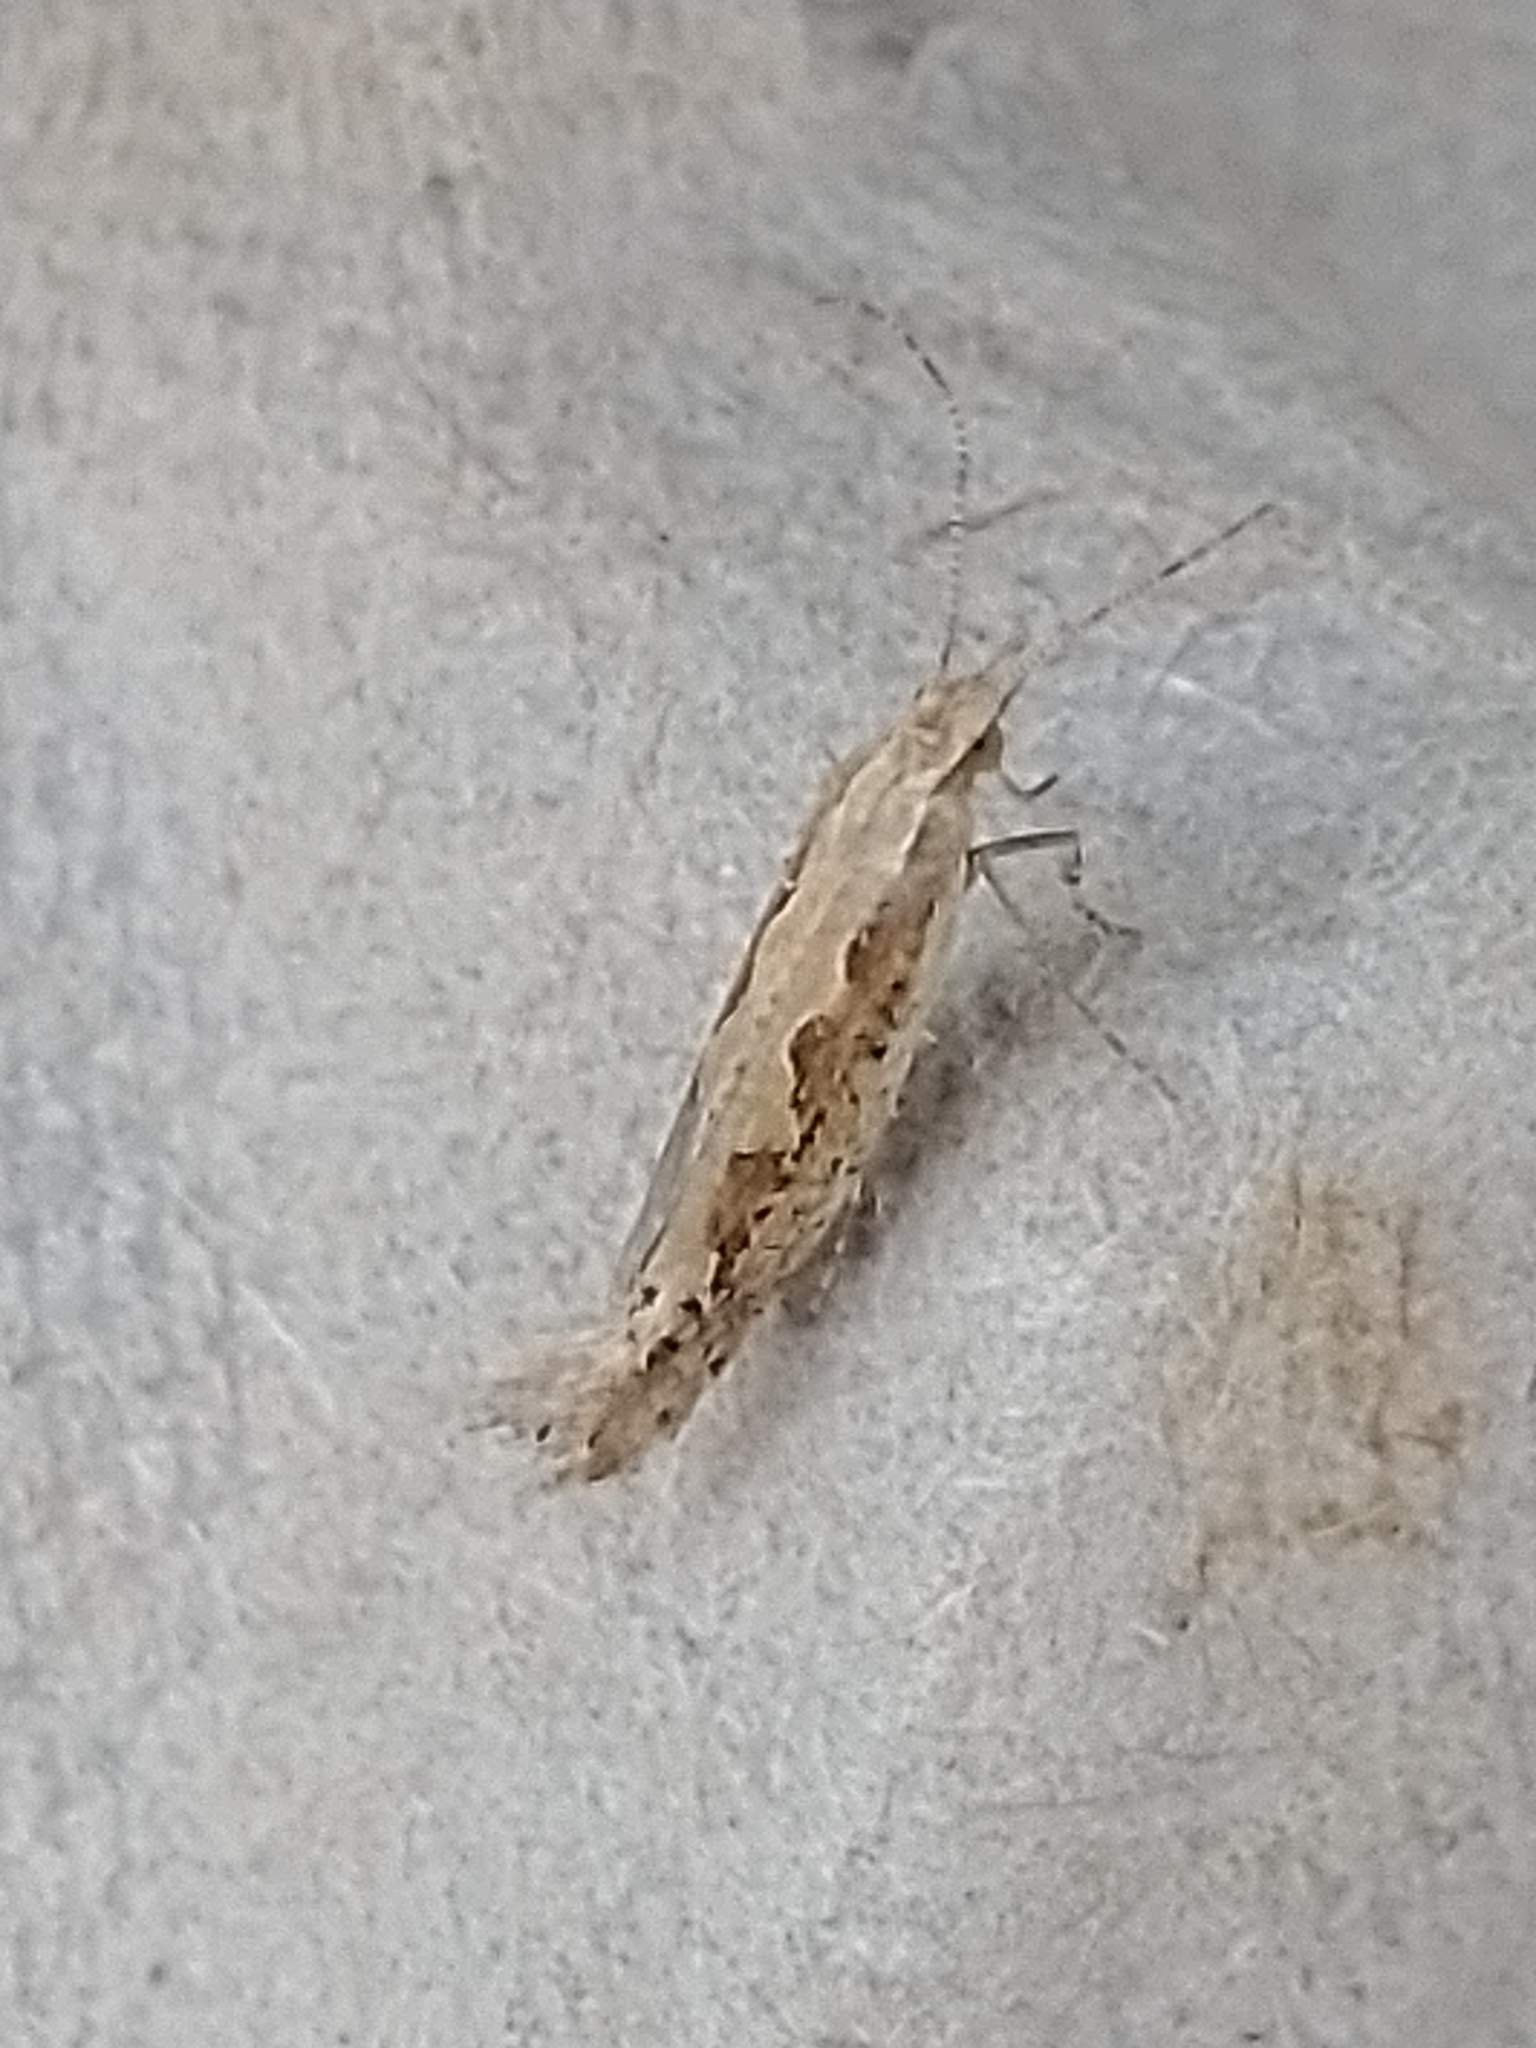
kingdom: Animalia
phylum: Arthropoda
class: Insecta
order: Lepidoptera
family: Plutellidae
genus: Plutella
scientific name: Plutella xylostella
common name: Diamond-back moth
